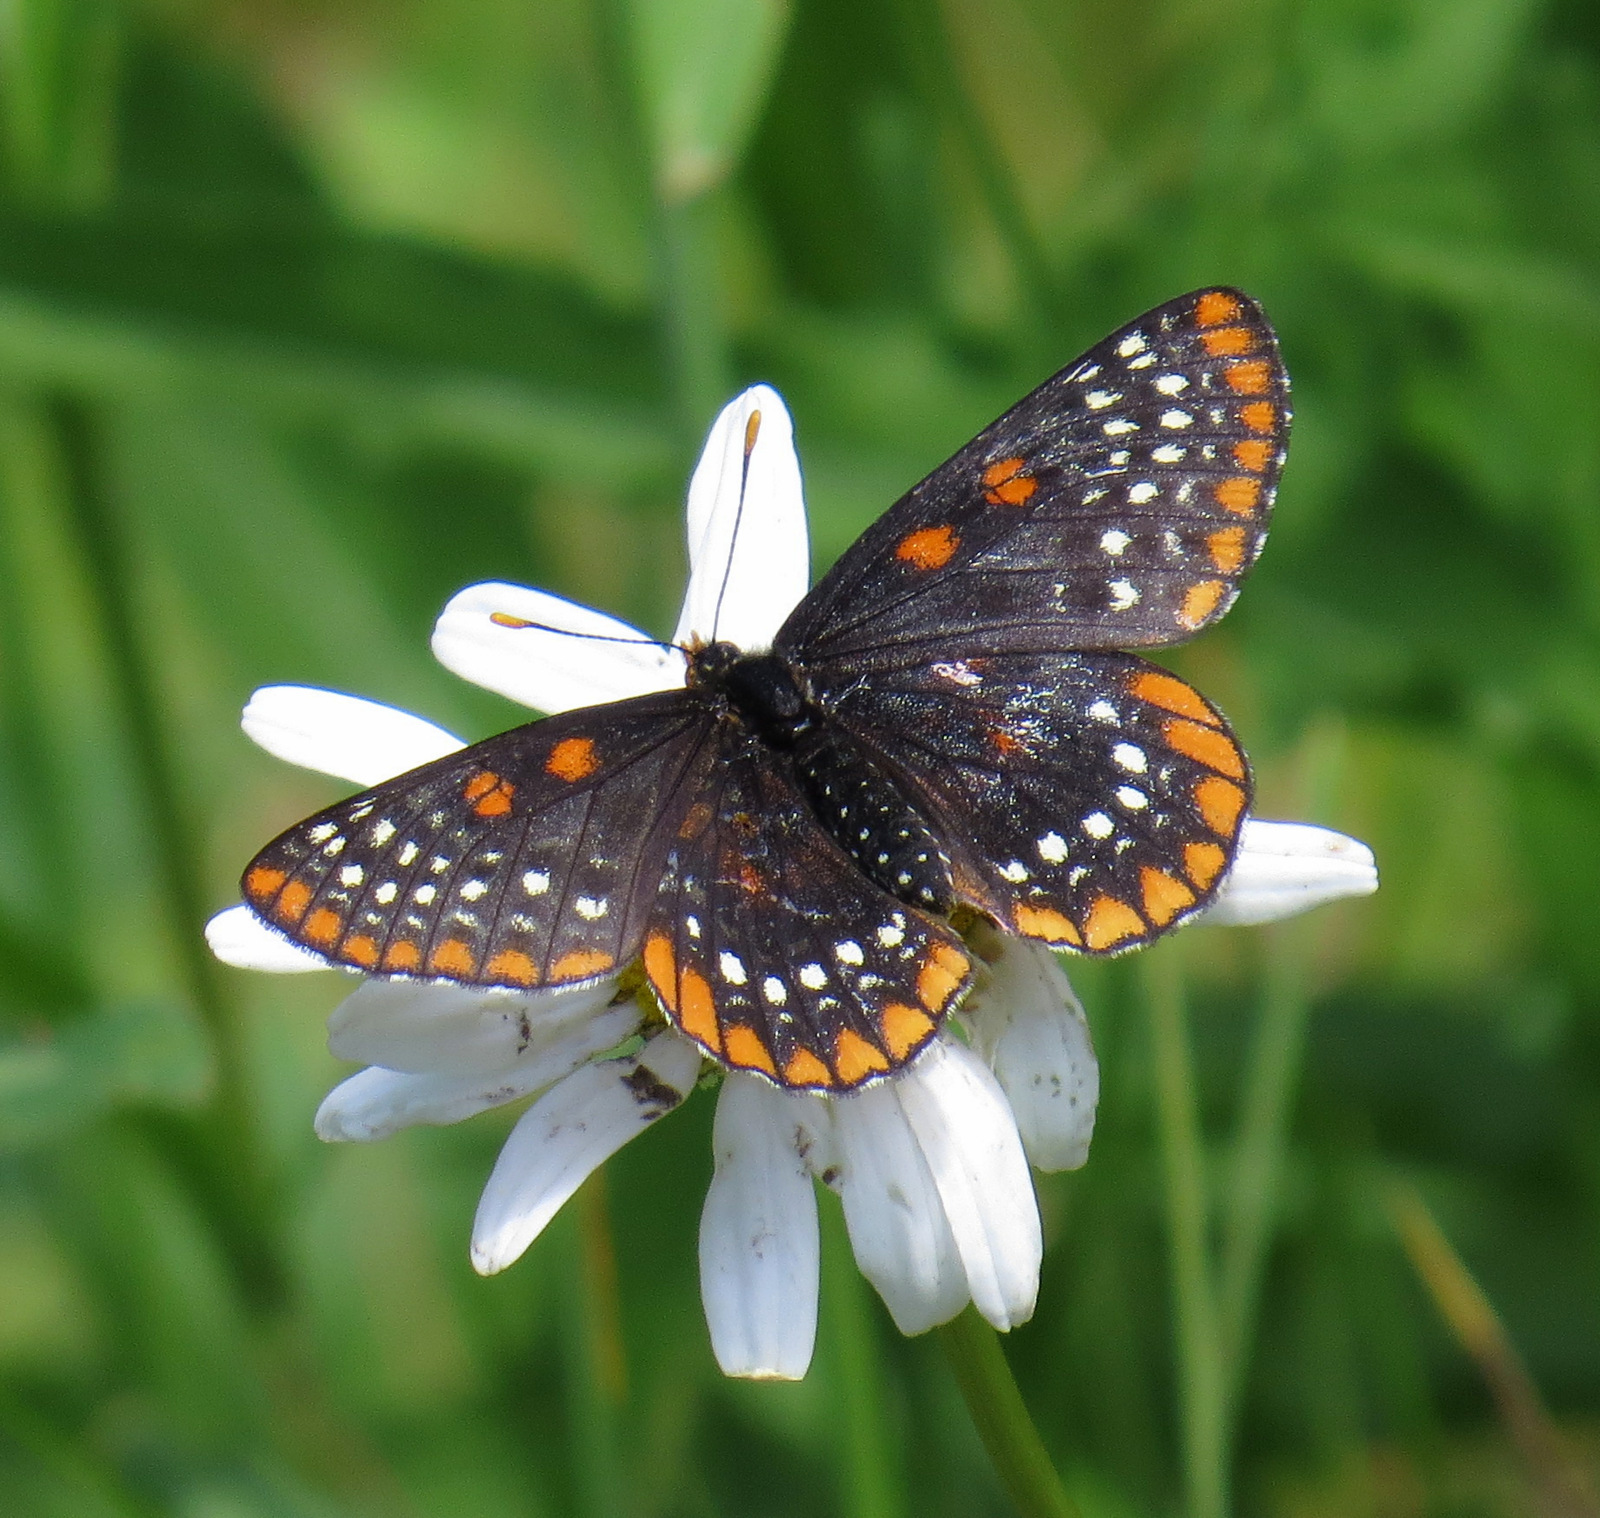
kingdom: Animalia
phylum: Arthropoda
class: Insecta
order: Lepidoptera
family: Nymphalidae
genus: Euphydryas
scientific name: Euphydryas phaeton
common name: Baltimore checkerspot
